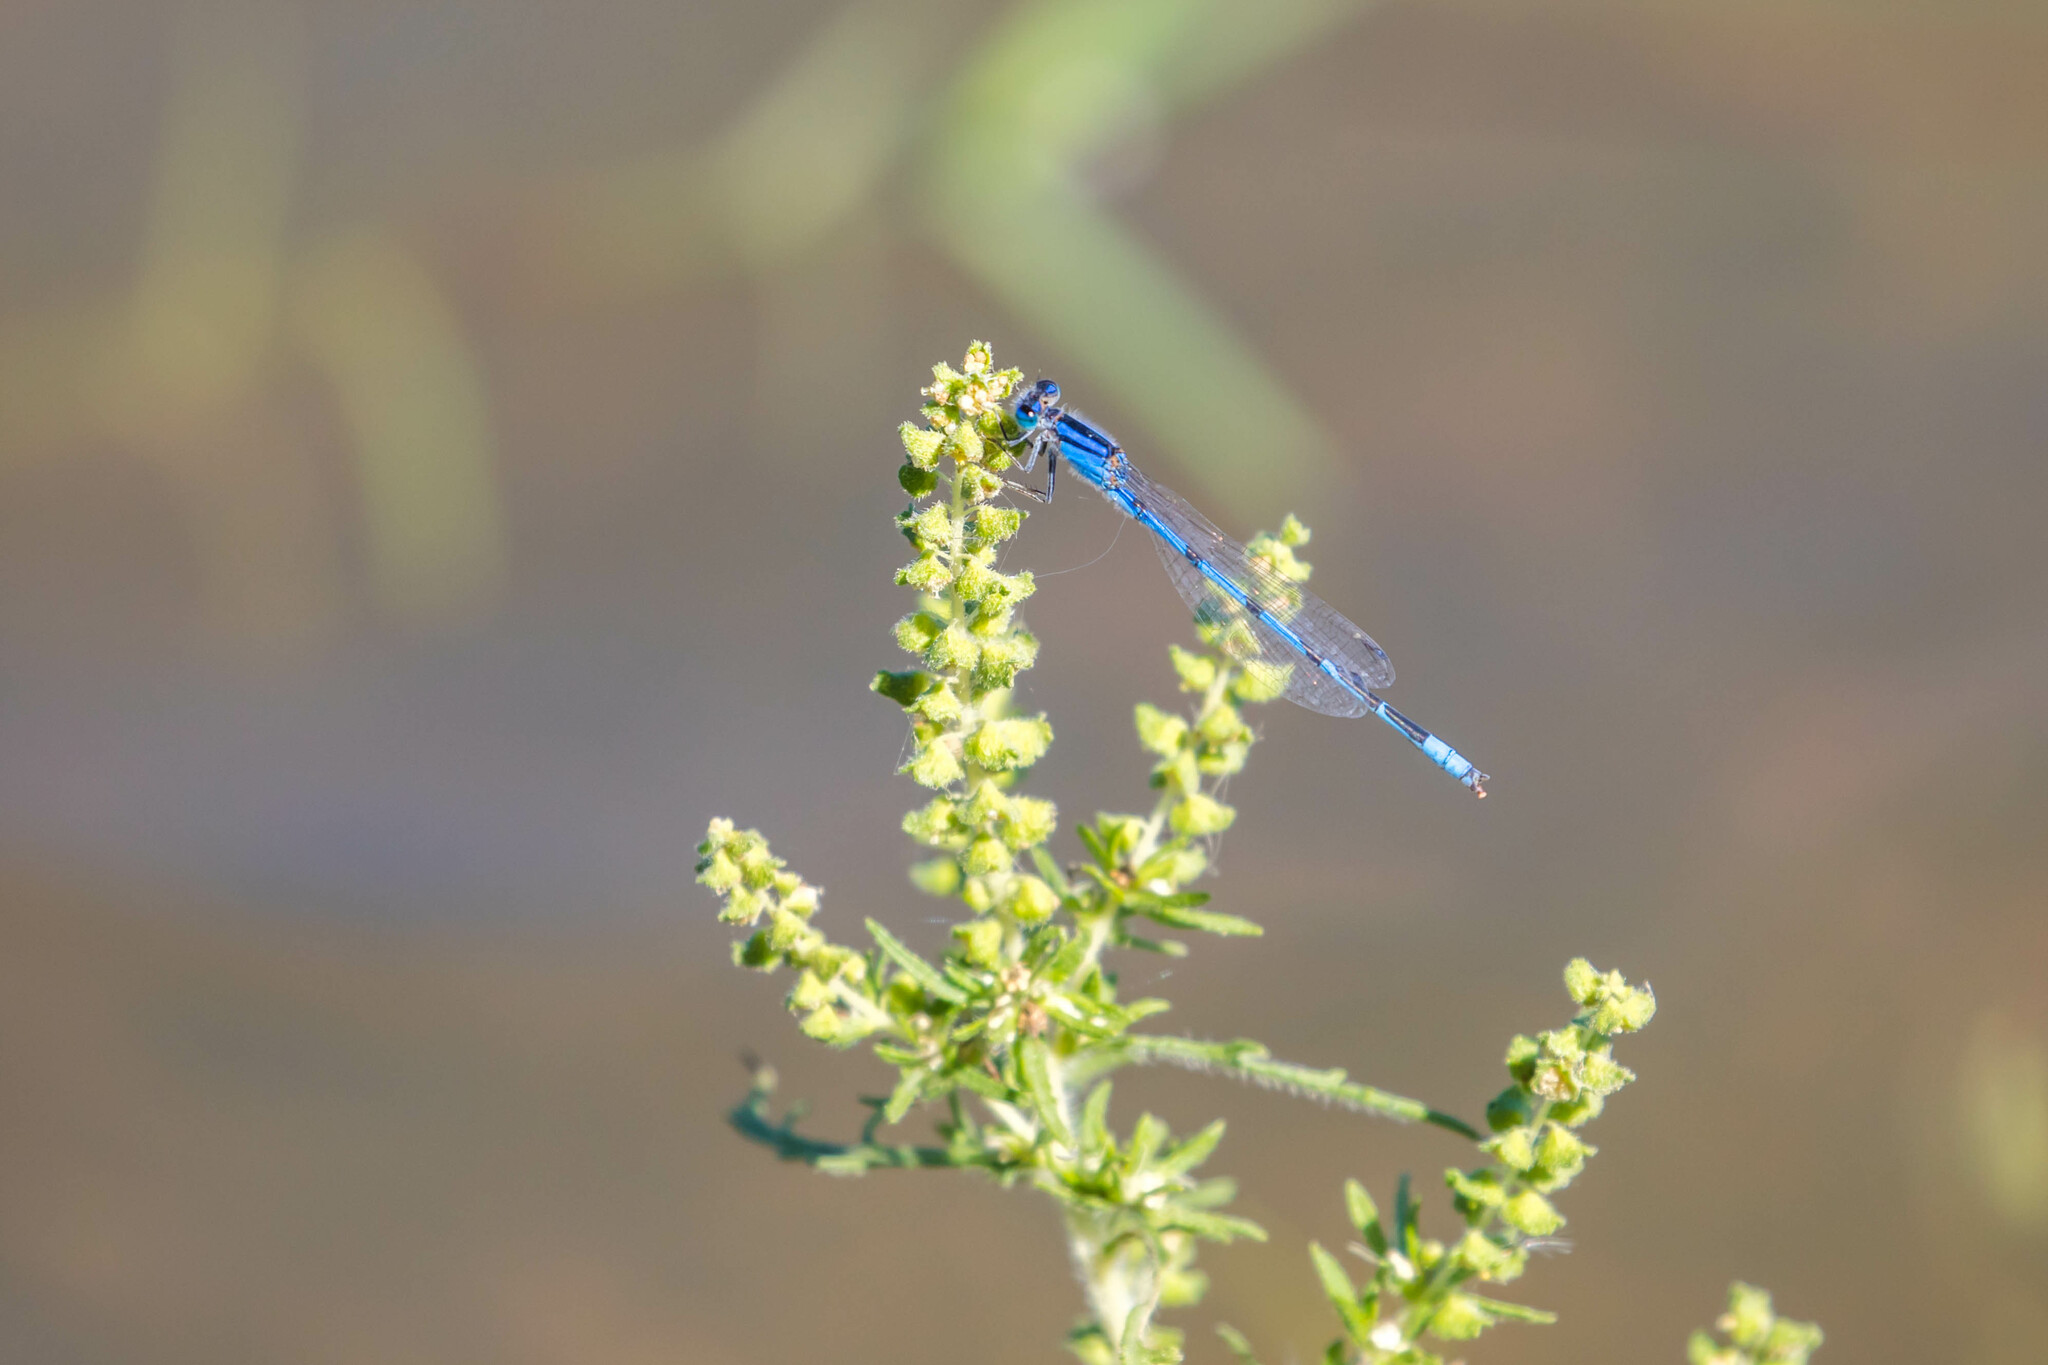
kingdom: Animalia
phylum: Arthropoda
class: Insecta
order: Odonata
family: Coenagrionidae
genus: Enallagma
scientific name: Enallagma civile
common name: Damselfly
